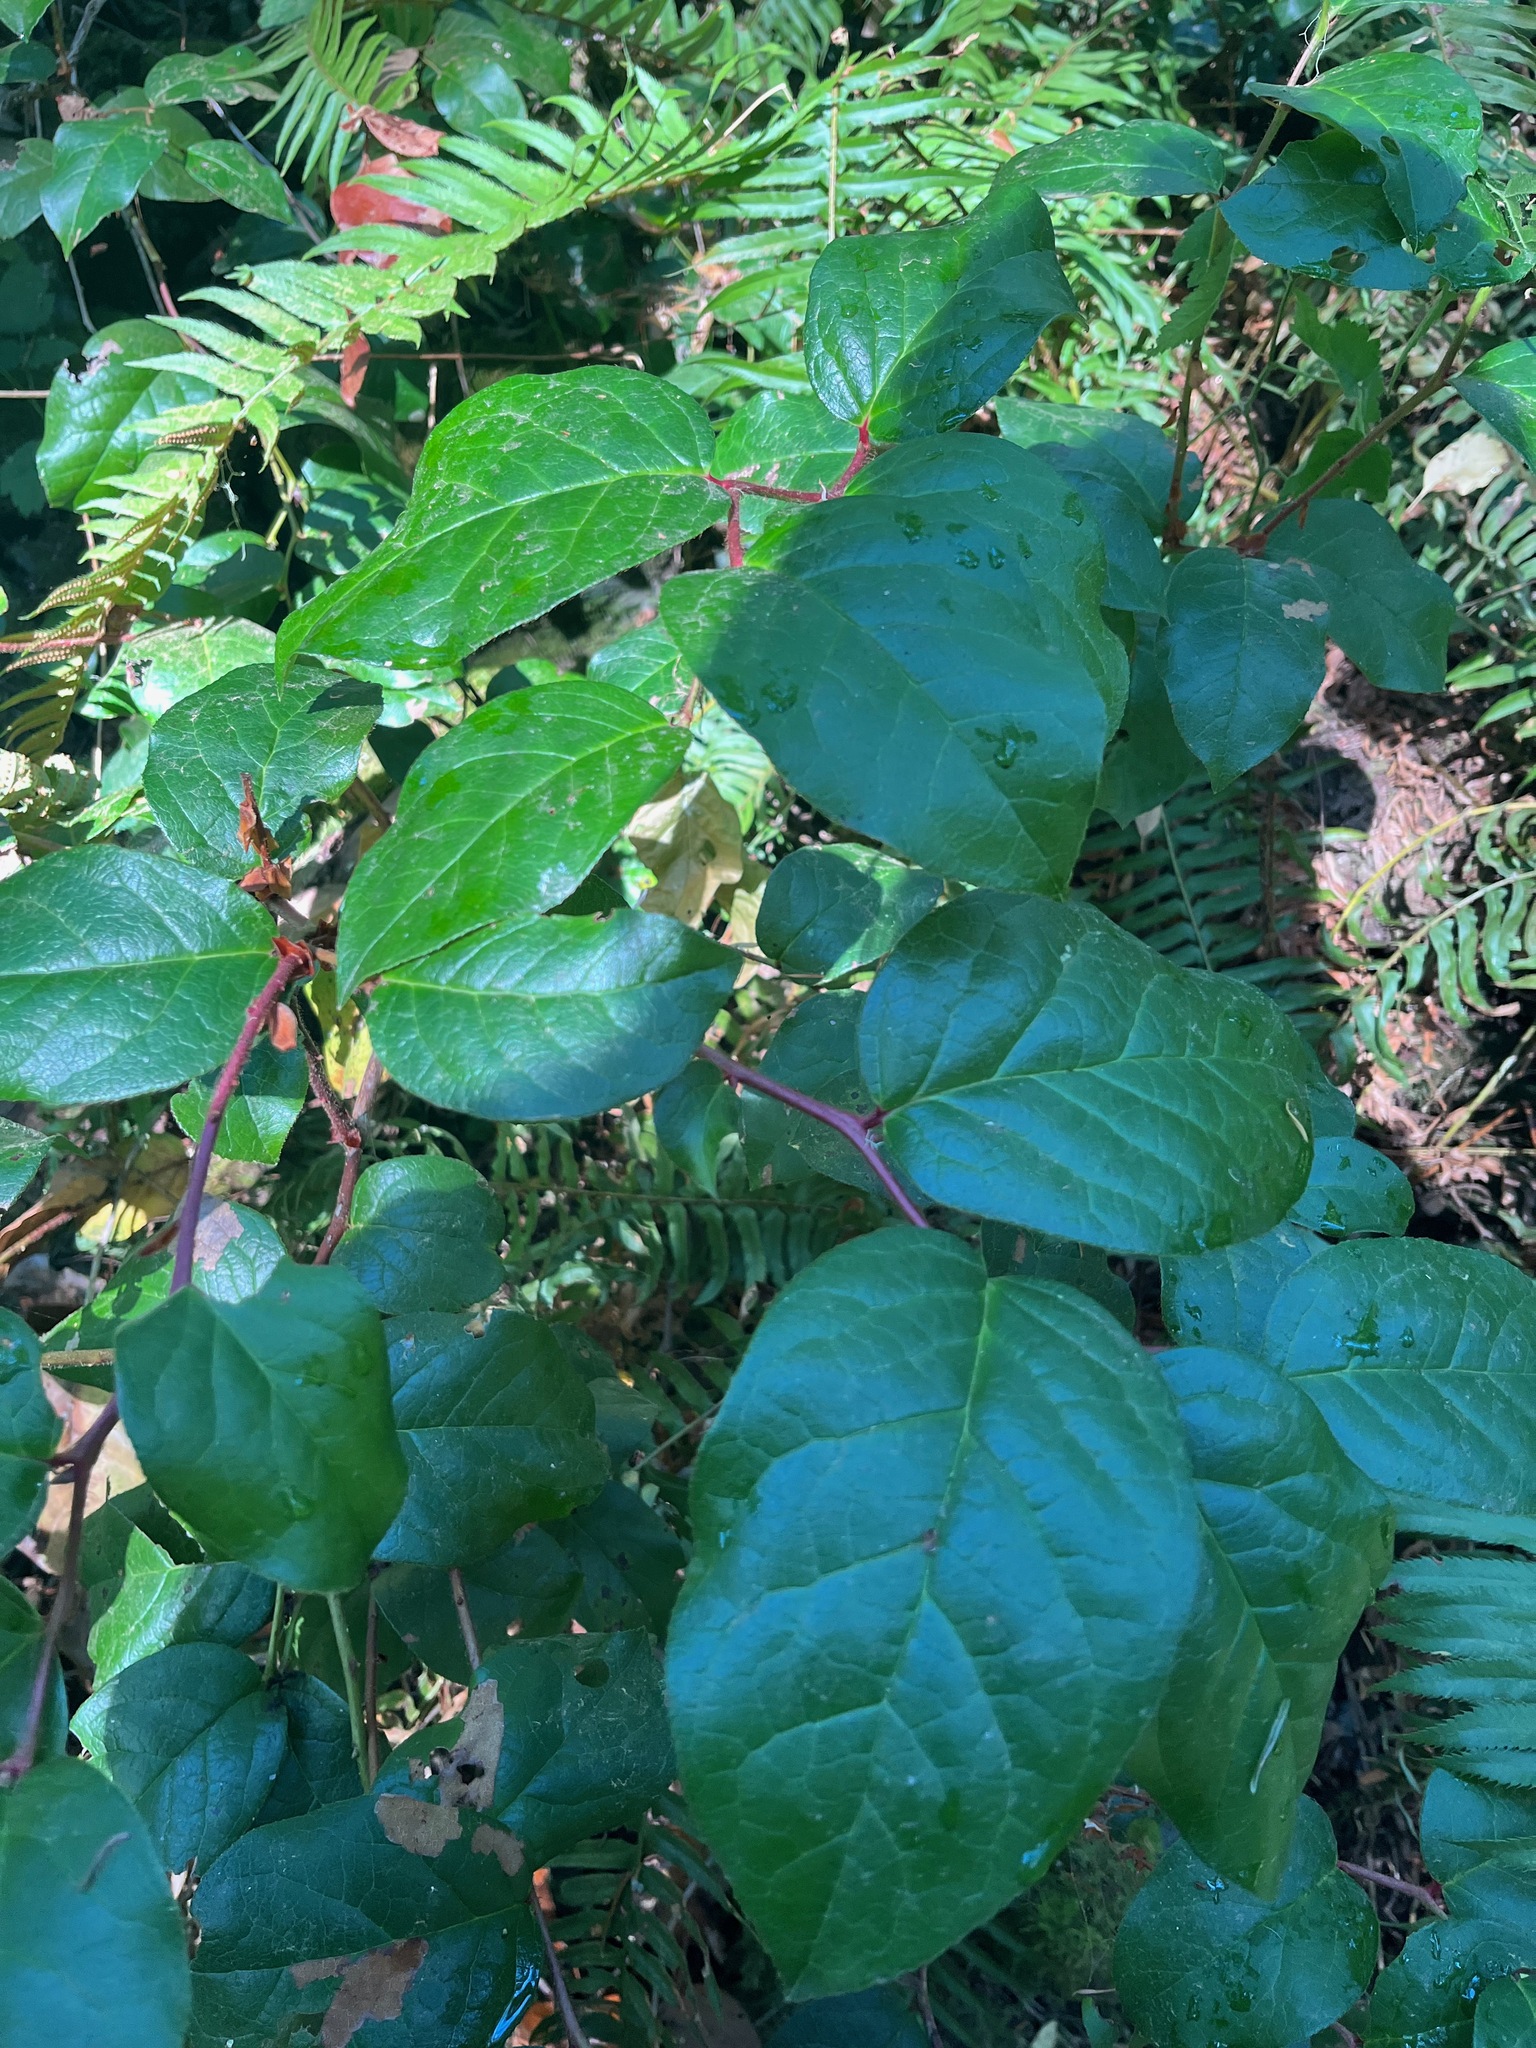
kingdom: Plantae
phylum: Tracheophyta
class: Magnoliopsida
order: Ericales
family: Ericaceae
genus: Gaultheria
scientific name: Gaultheria shallon
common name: Shallon
